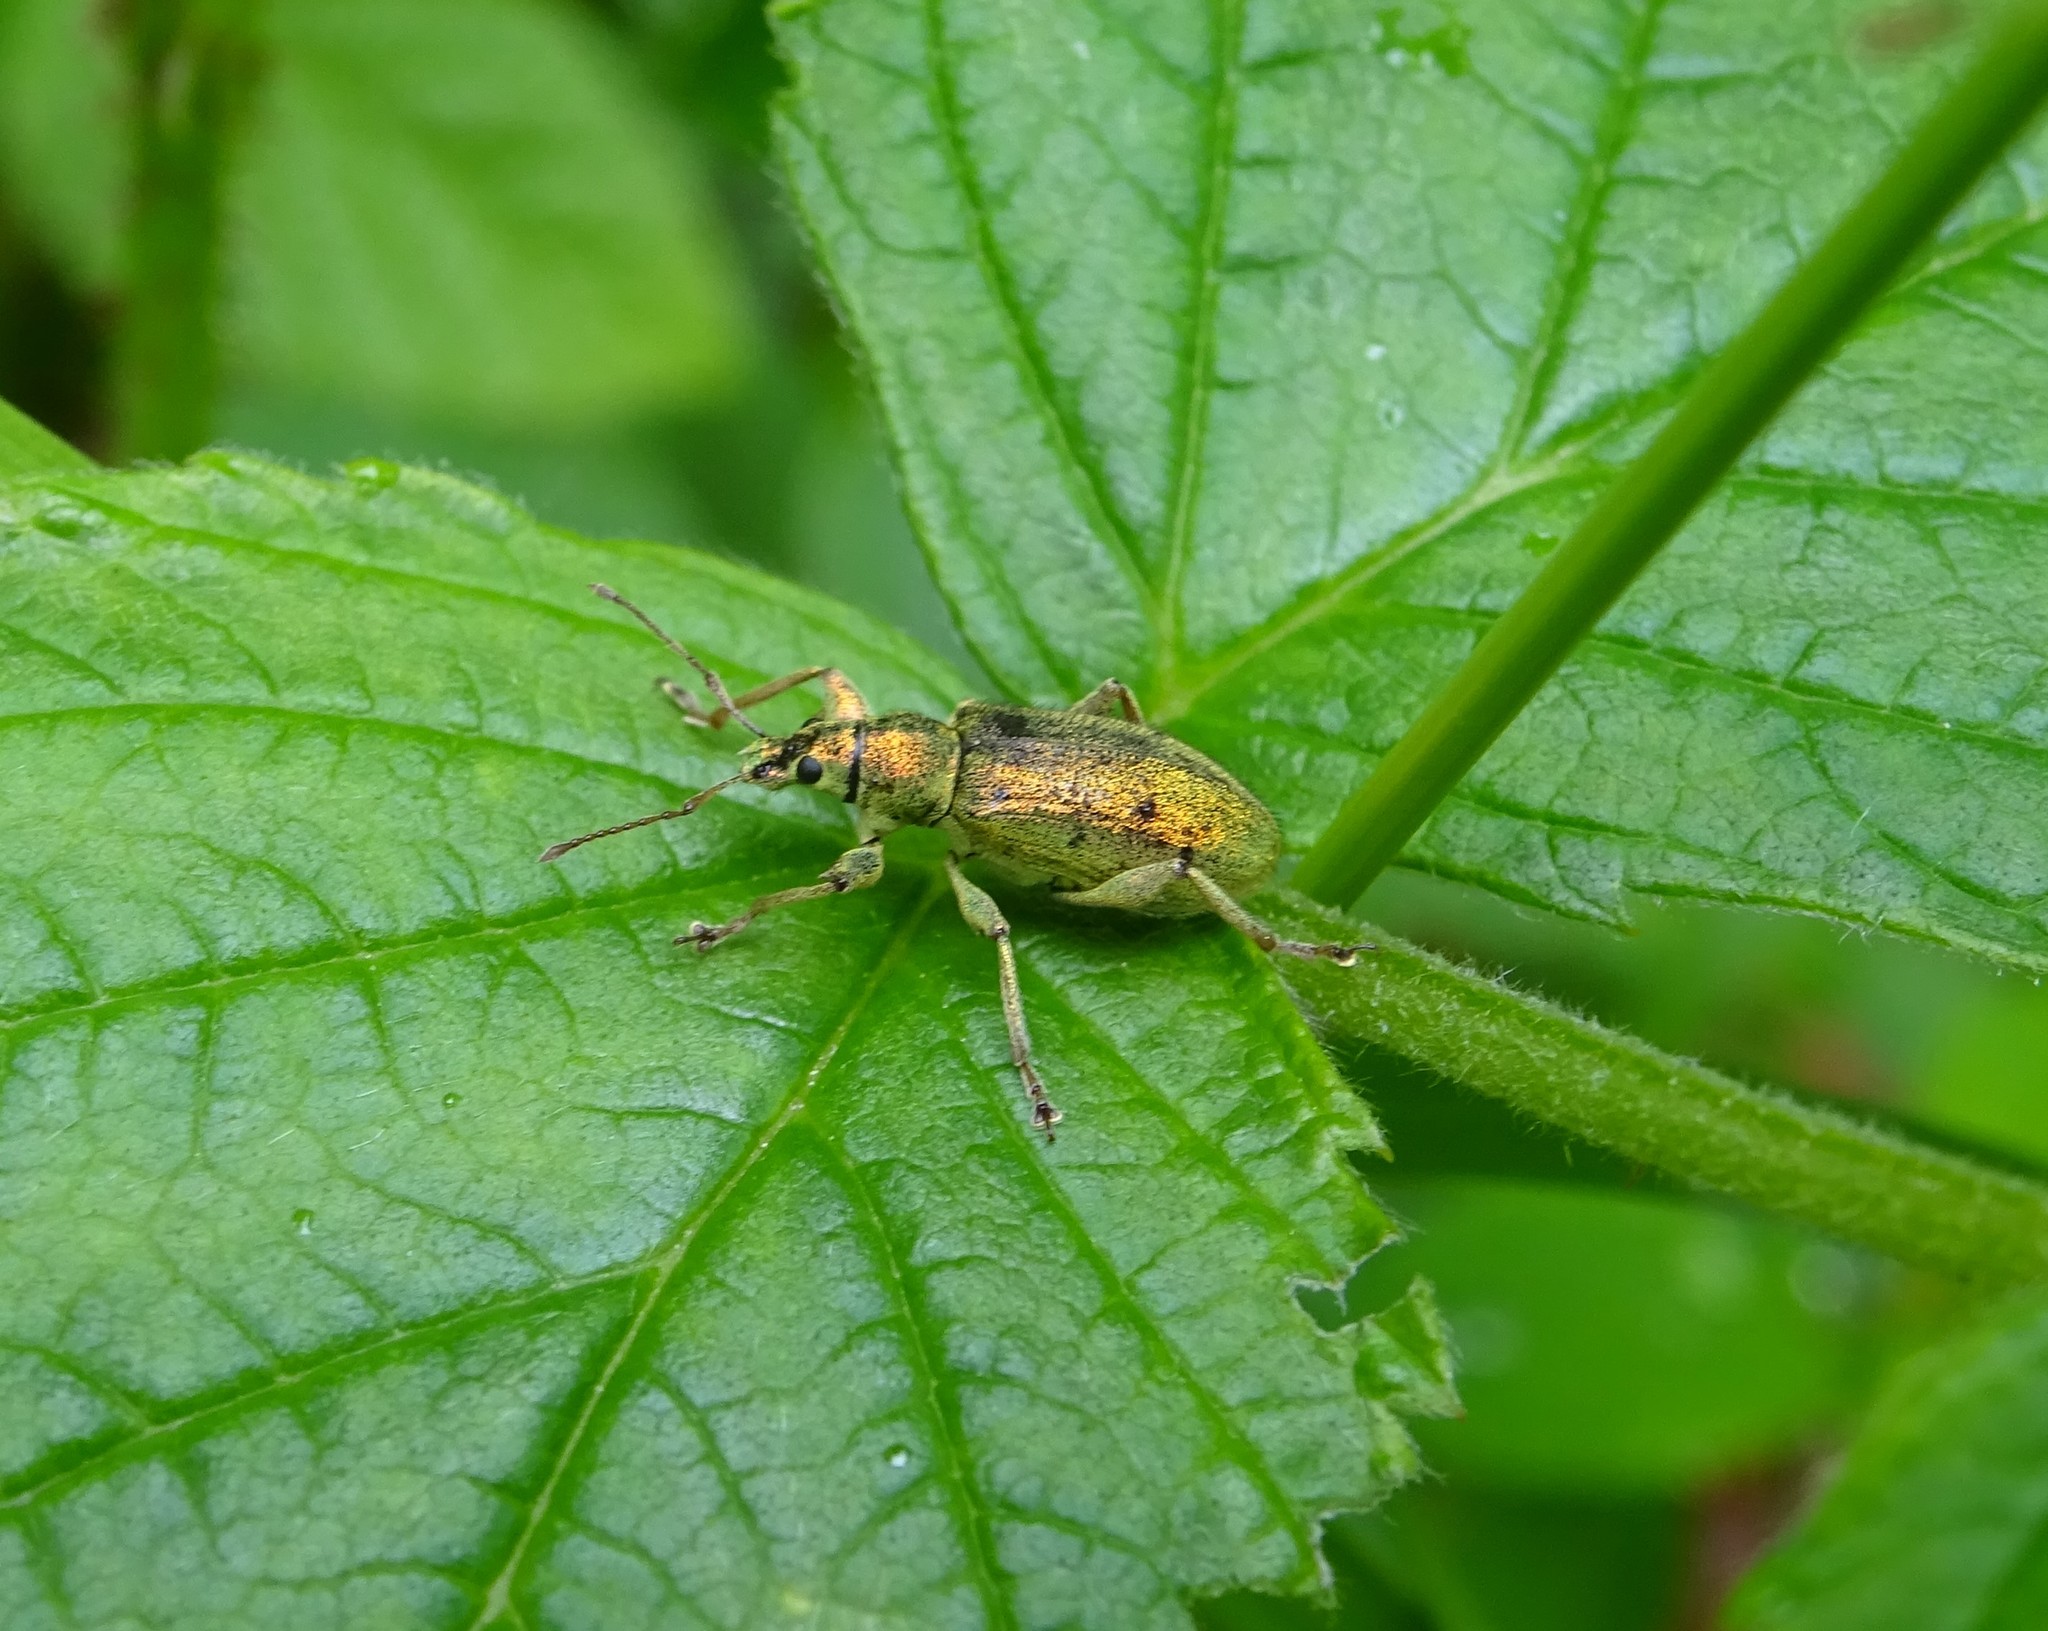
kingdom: Animalia
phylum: Arthropoda
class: Insecta
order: Coleoptera
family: Curculionidae
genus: Phyllobius
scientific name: Phyllobius arborator
